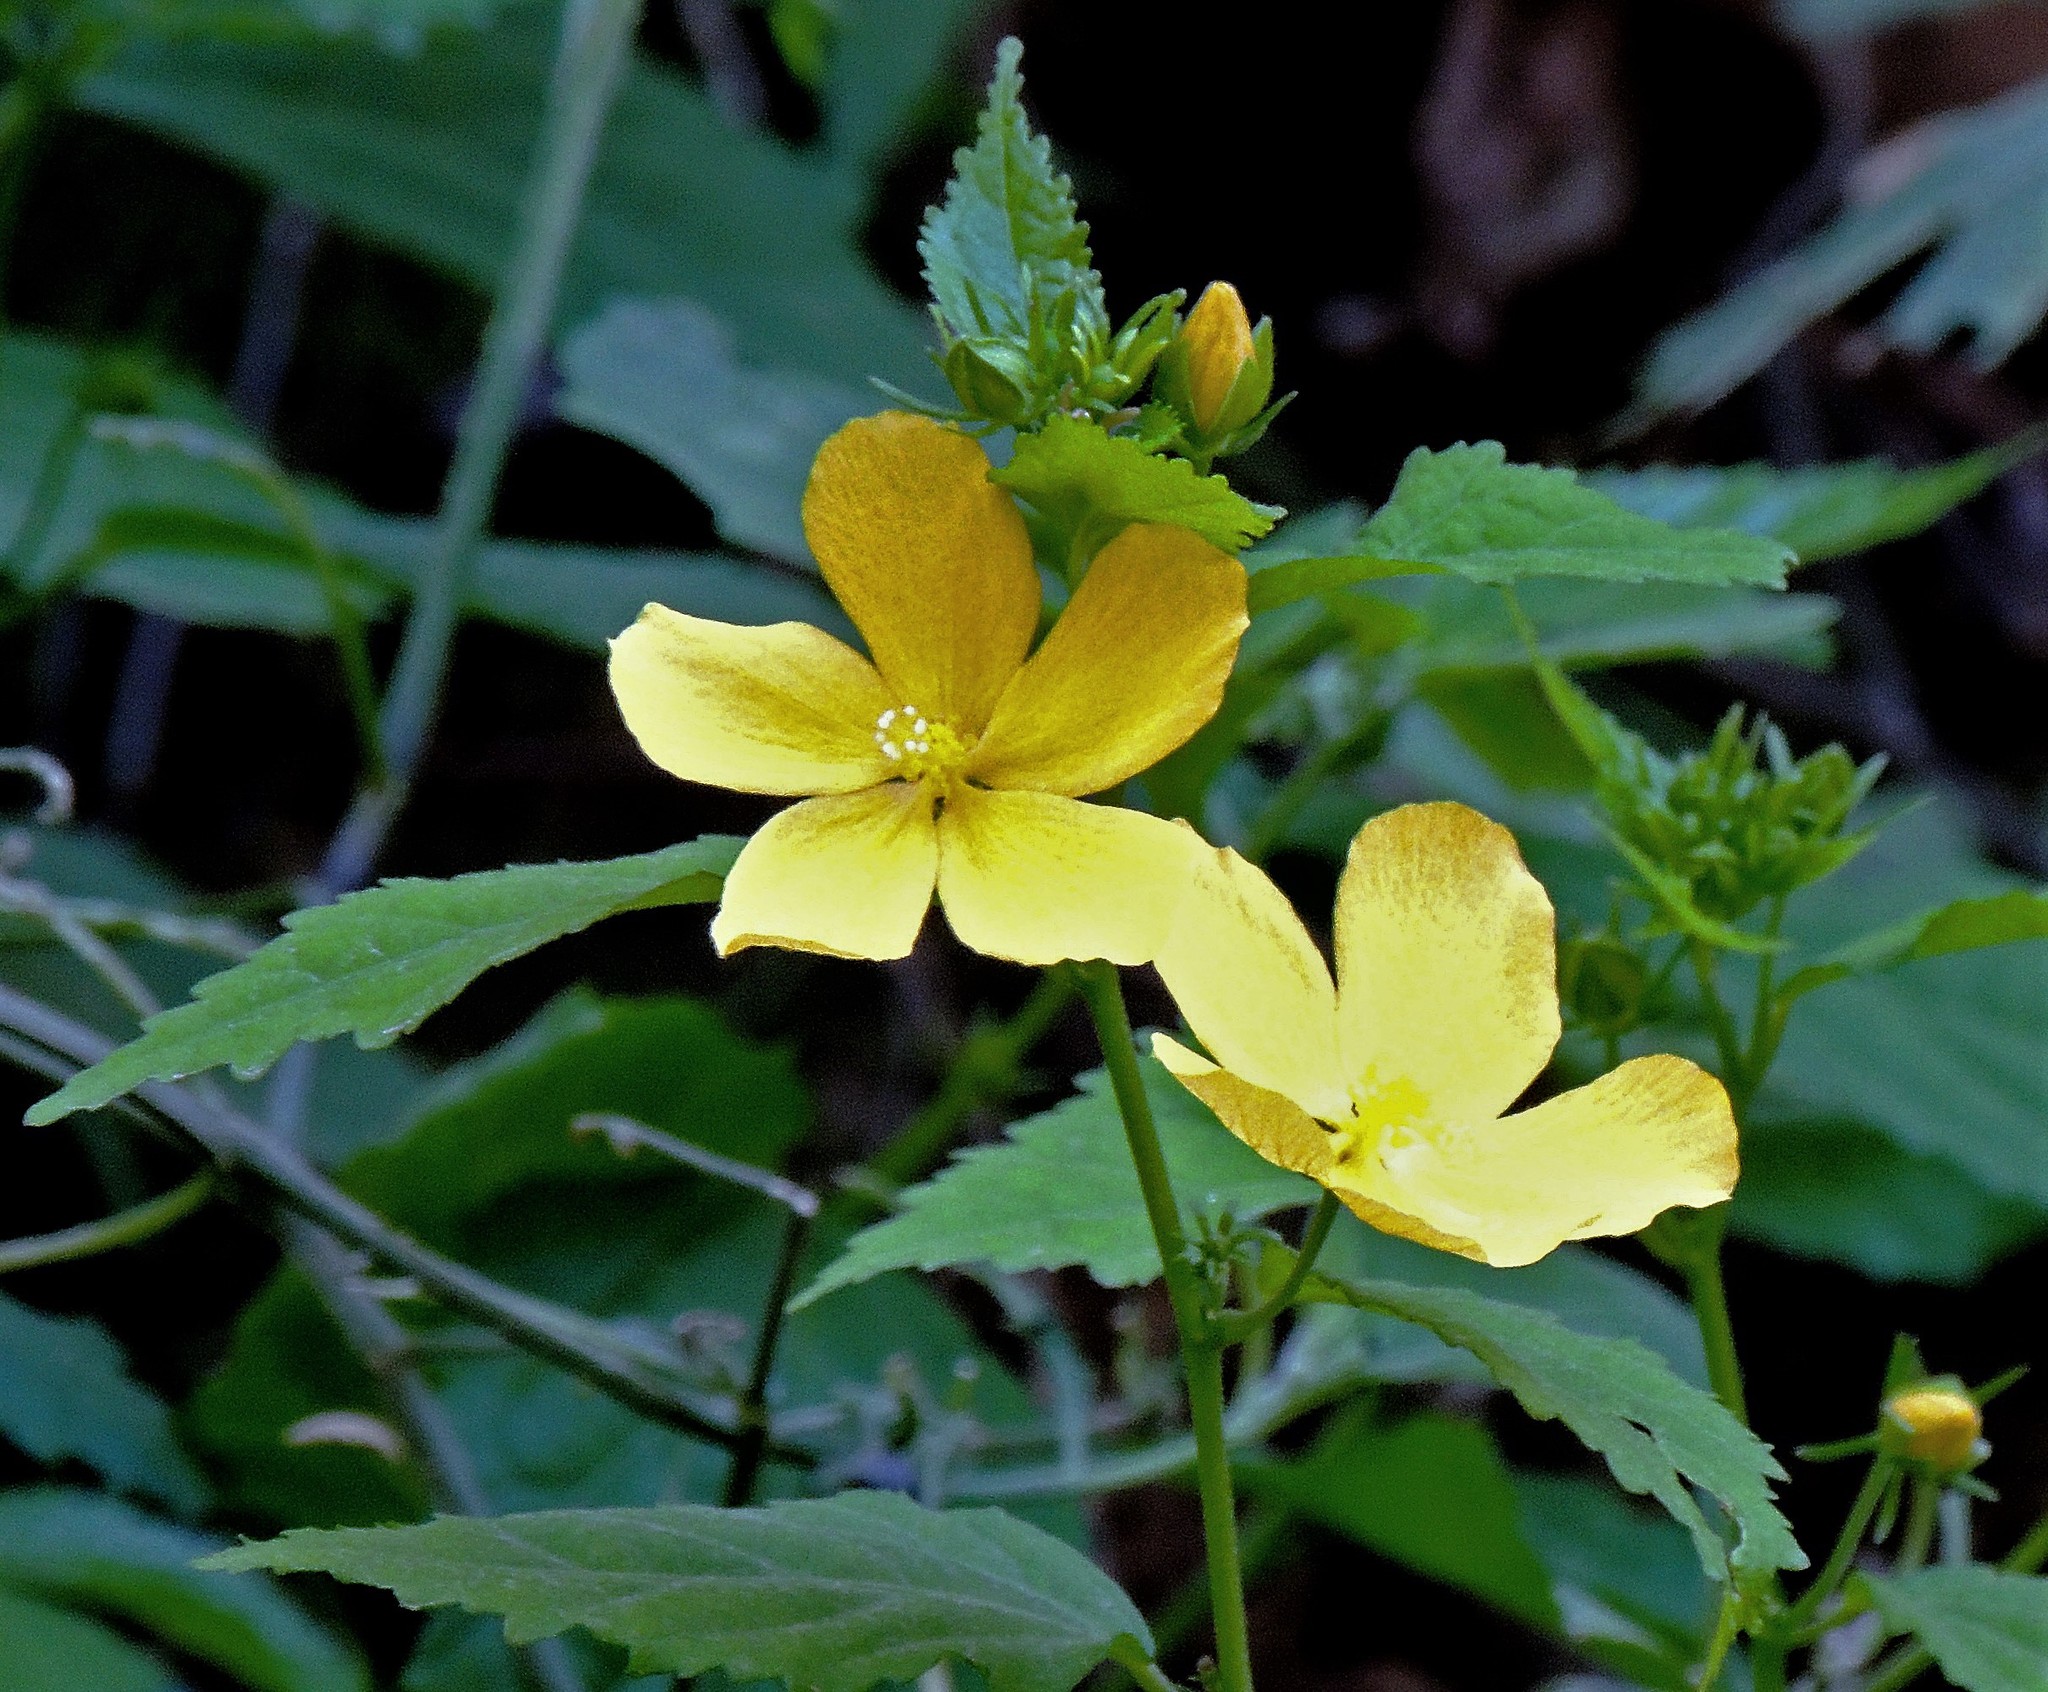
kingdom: Plantae
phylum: Tracheophyta
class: Magnoliopsida
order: Malvales
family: Malvaceae
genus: Pavonia
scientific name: Pavonia sepium
